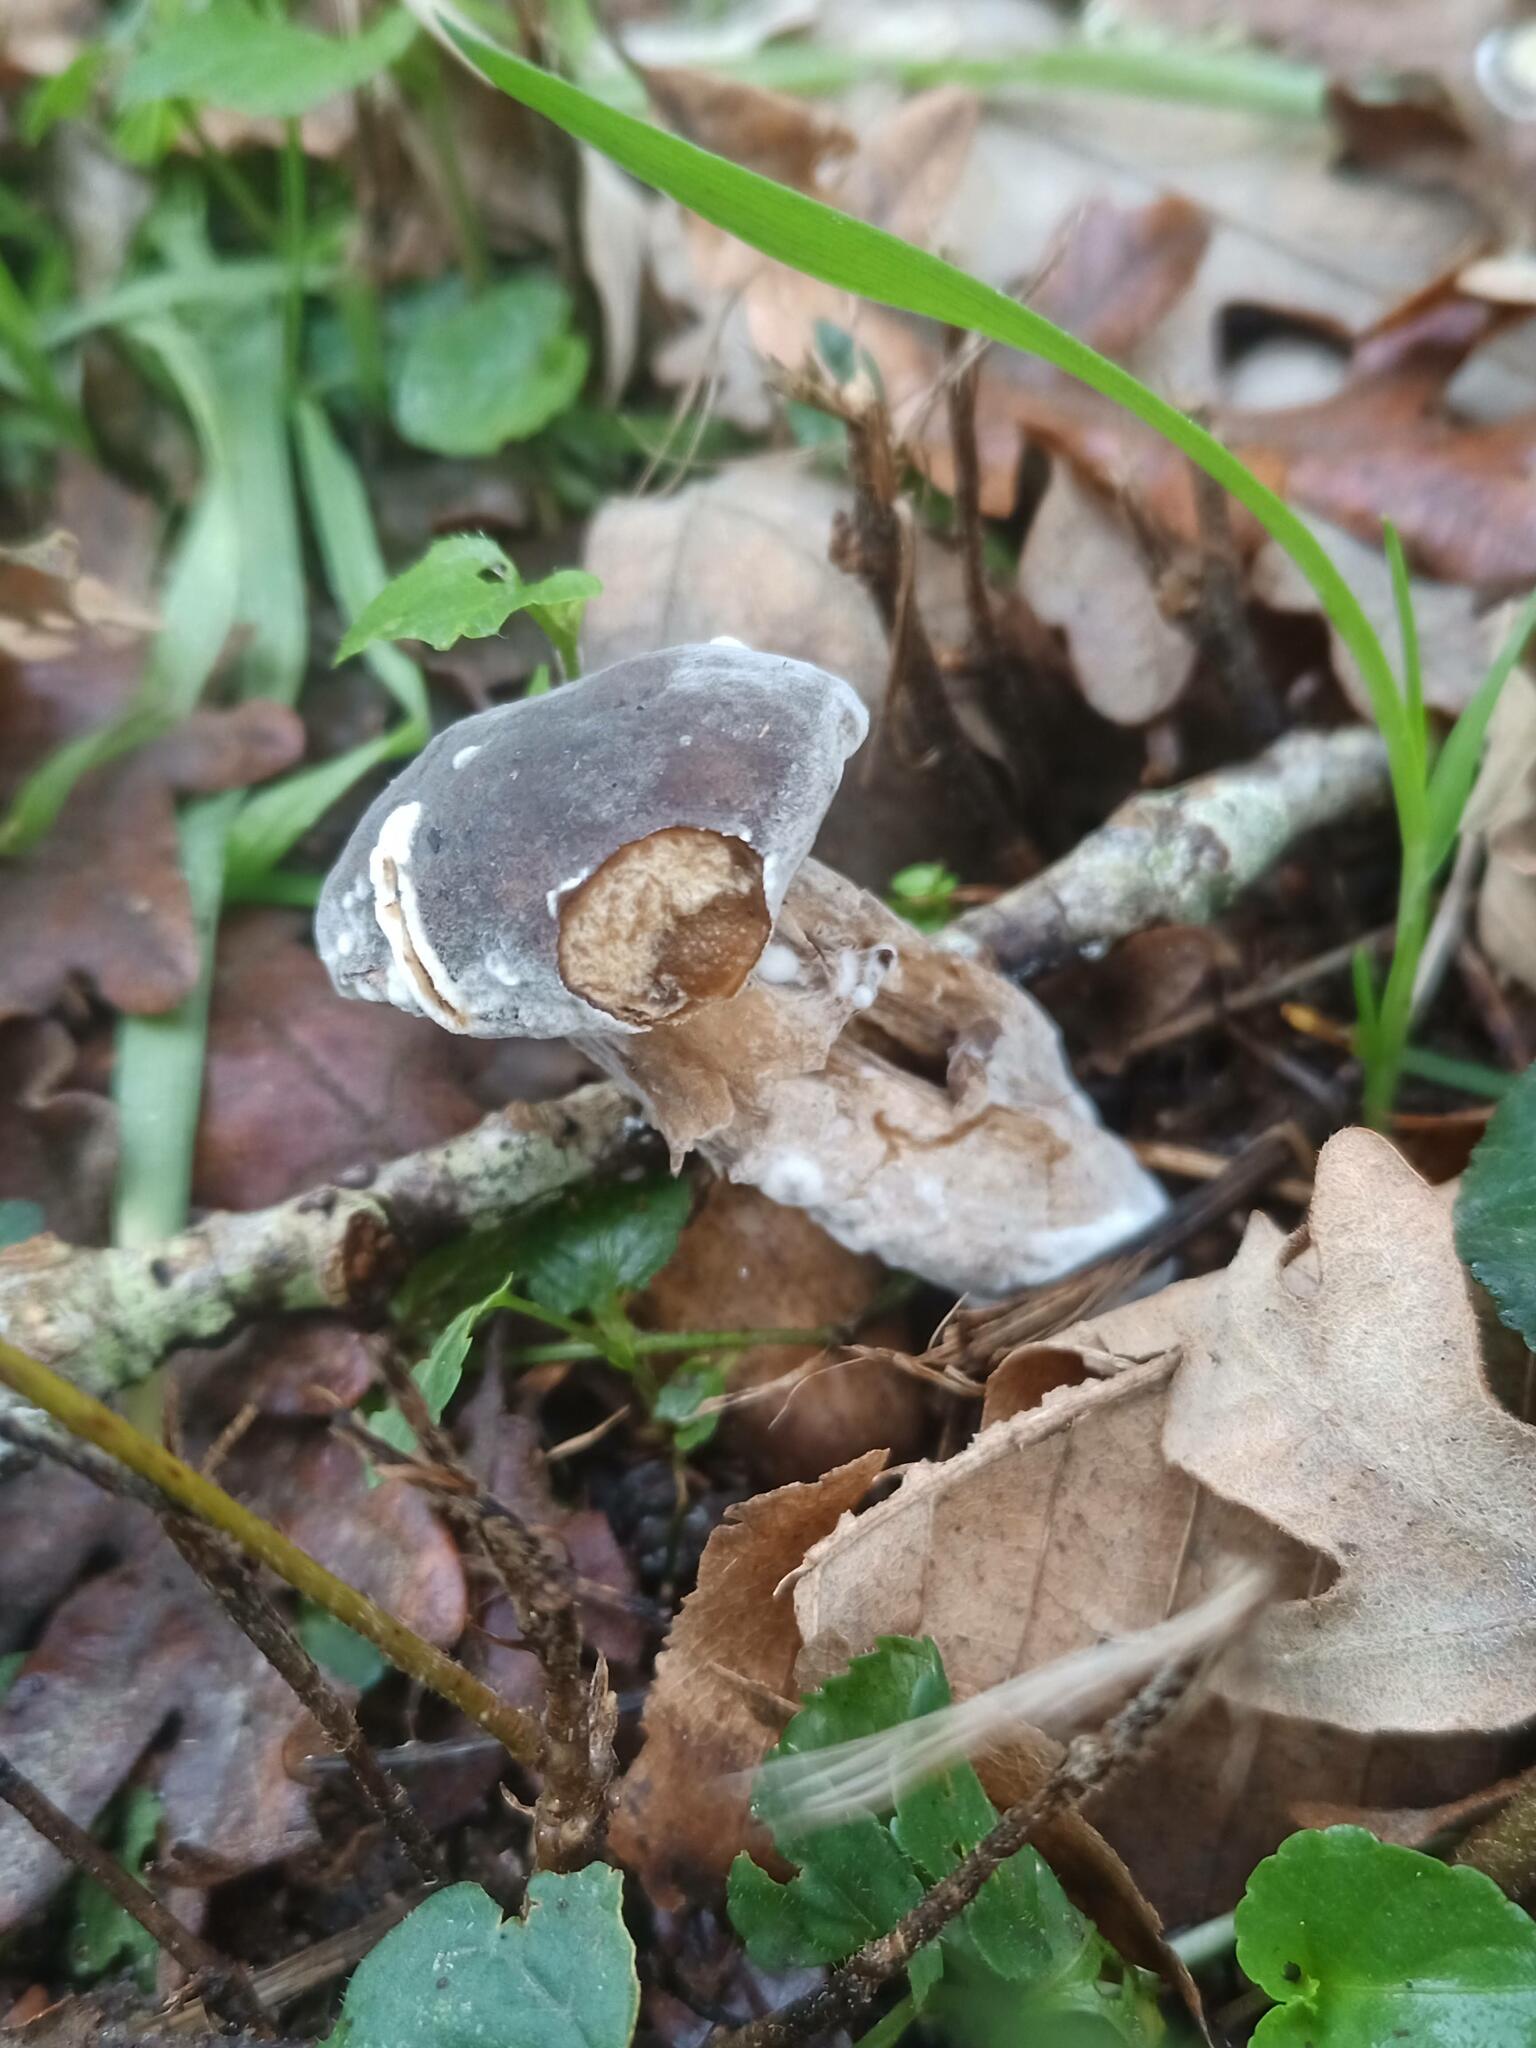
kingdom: Fungi
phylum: Ascomycota
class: Sordariomycetes
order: Hypocreales
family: Hypocreaceae
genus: Hypomyces
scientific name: Hypomyces chrysospermus
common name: Bolete mould
